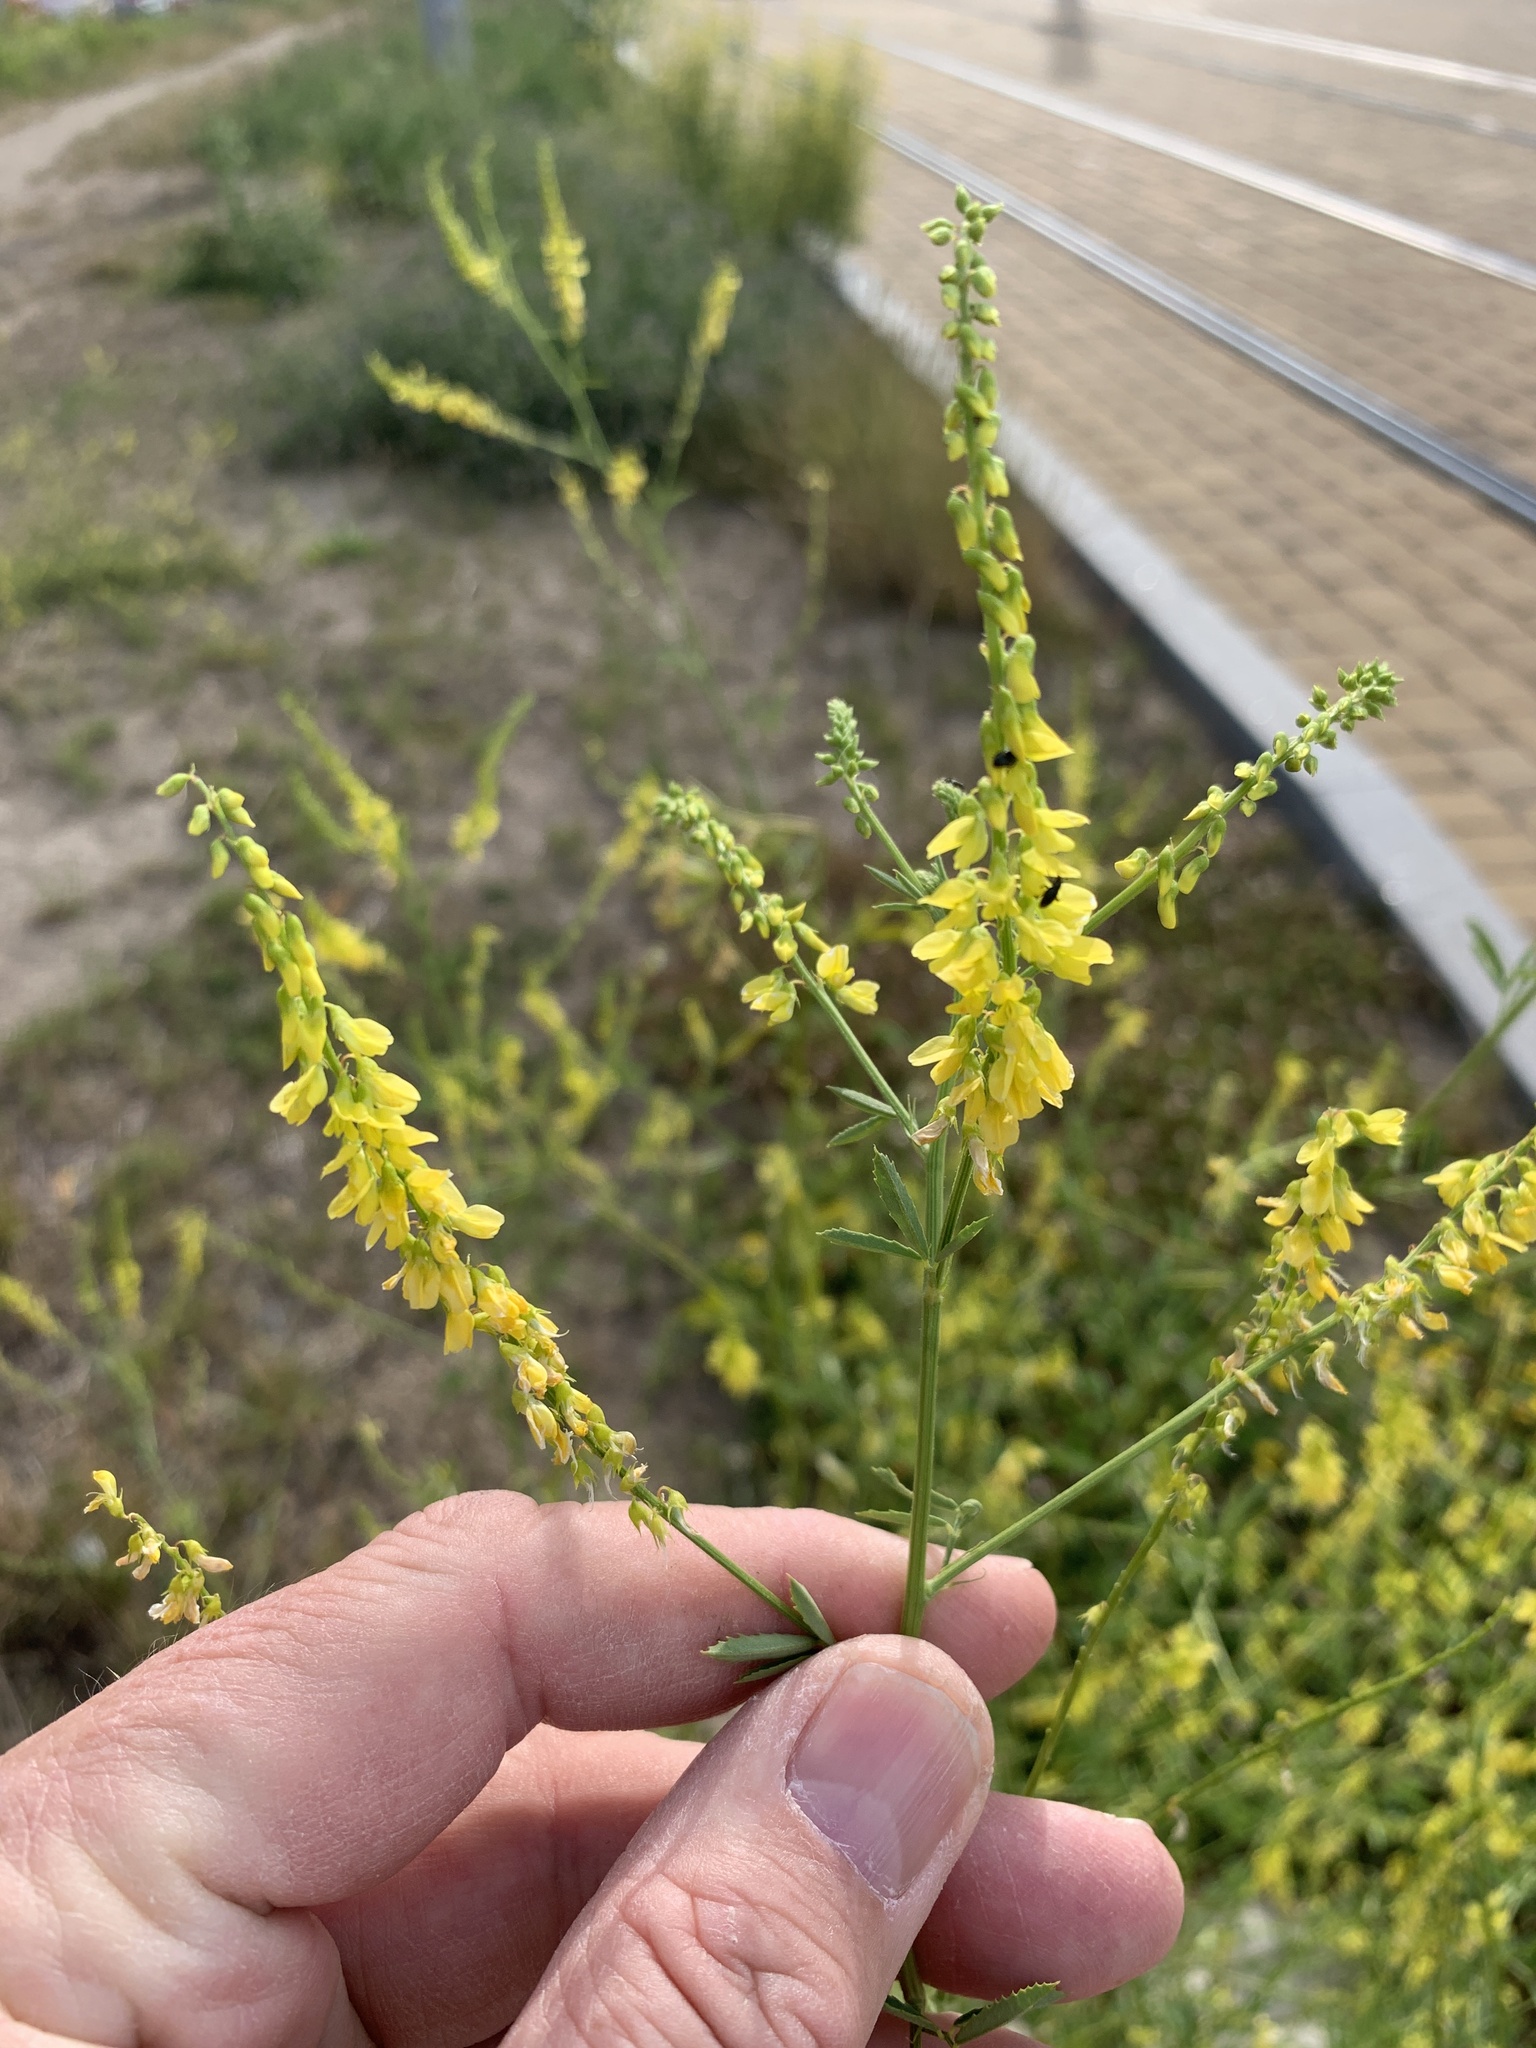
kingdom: Plantae
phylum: Tracheophyta
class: Magnoliopsida
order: Fabales
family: Fabaceae
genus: Melilotus
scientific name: Melilotus officinalis
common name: Sweetclover
